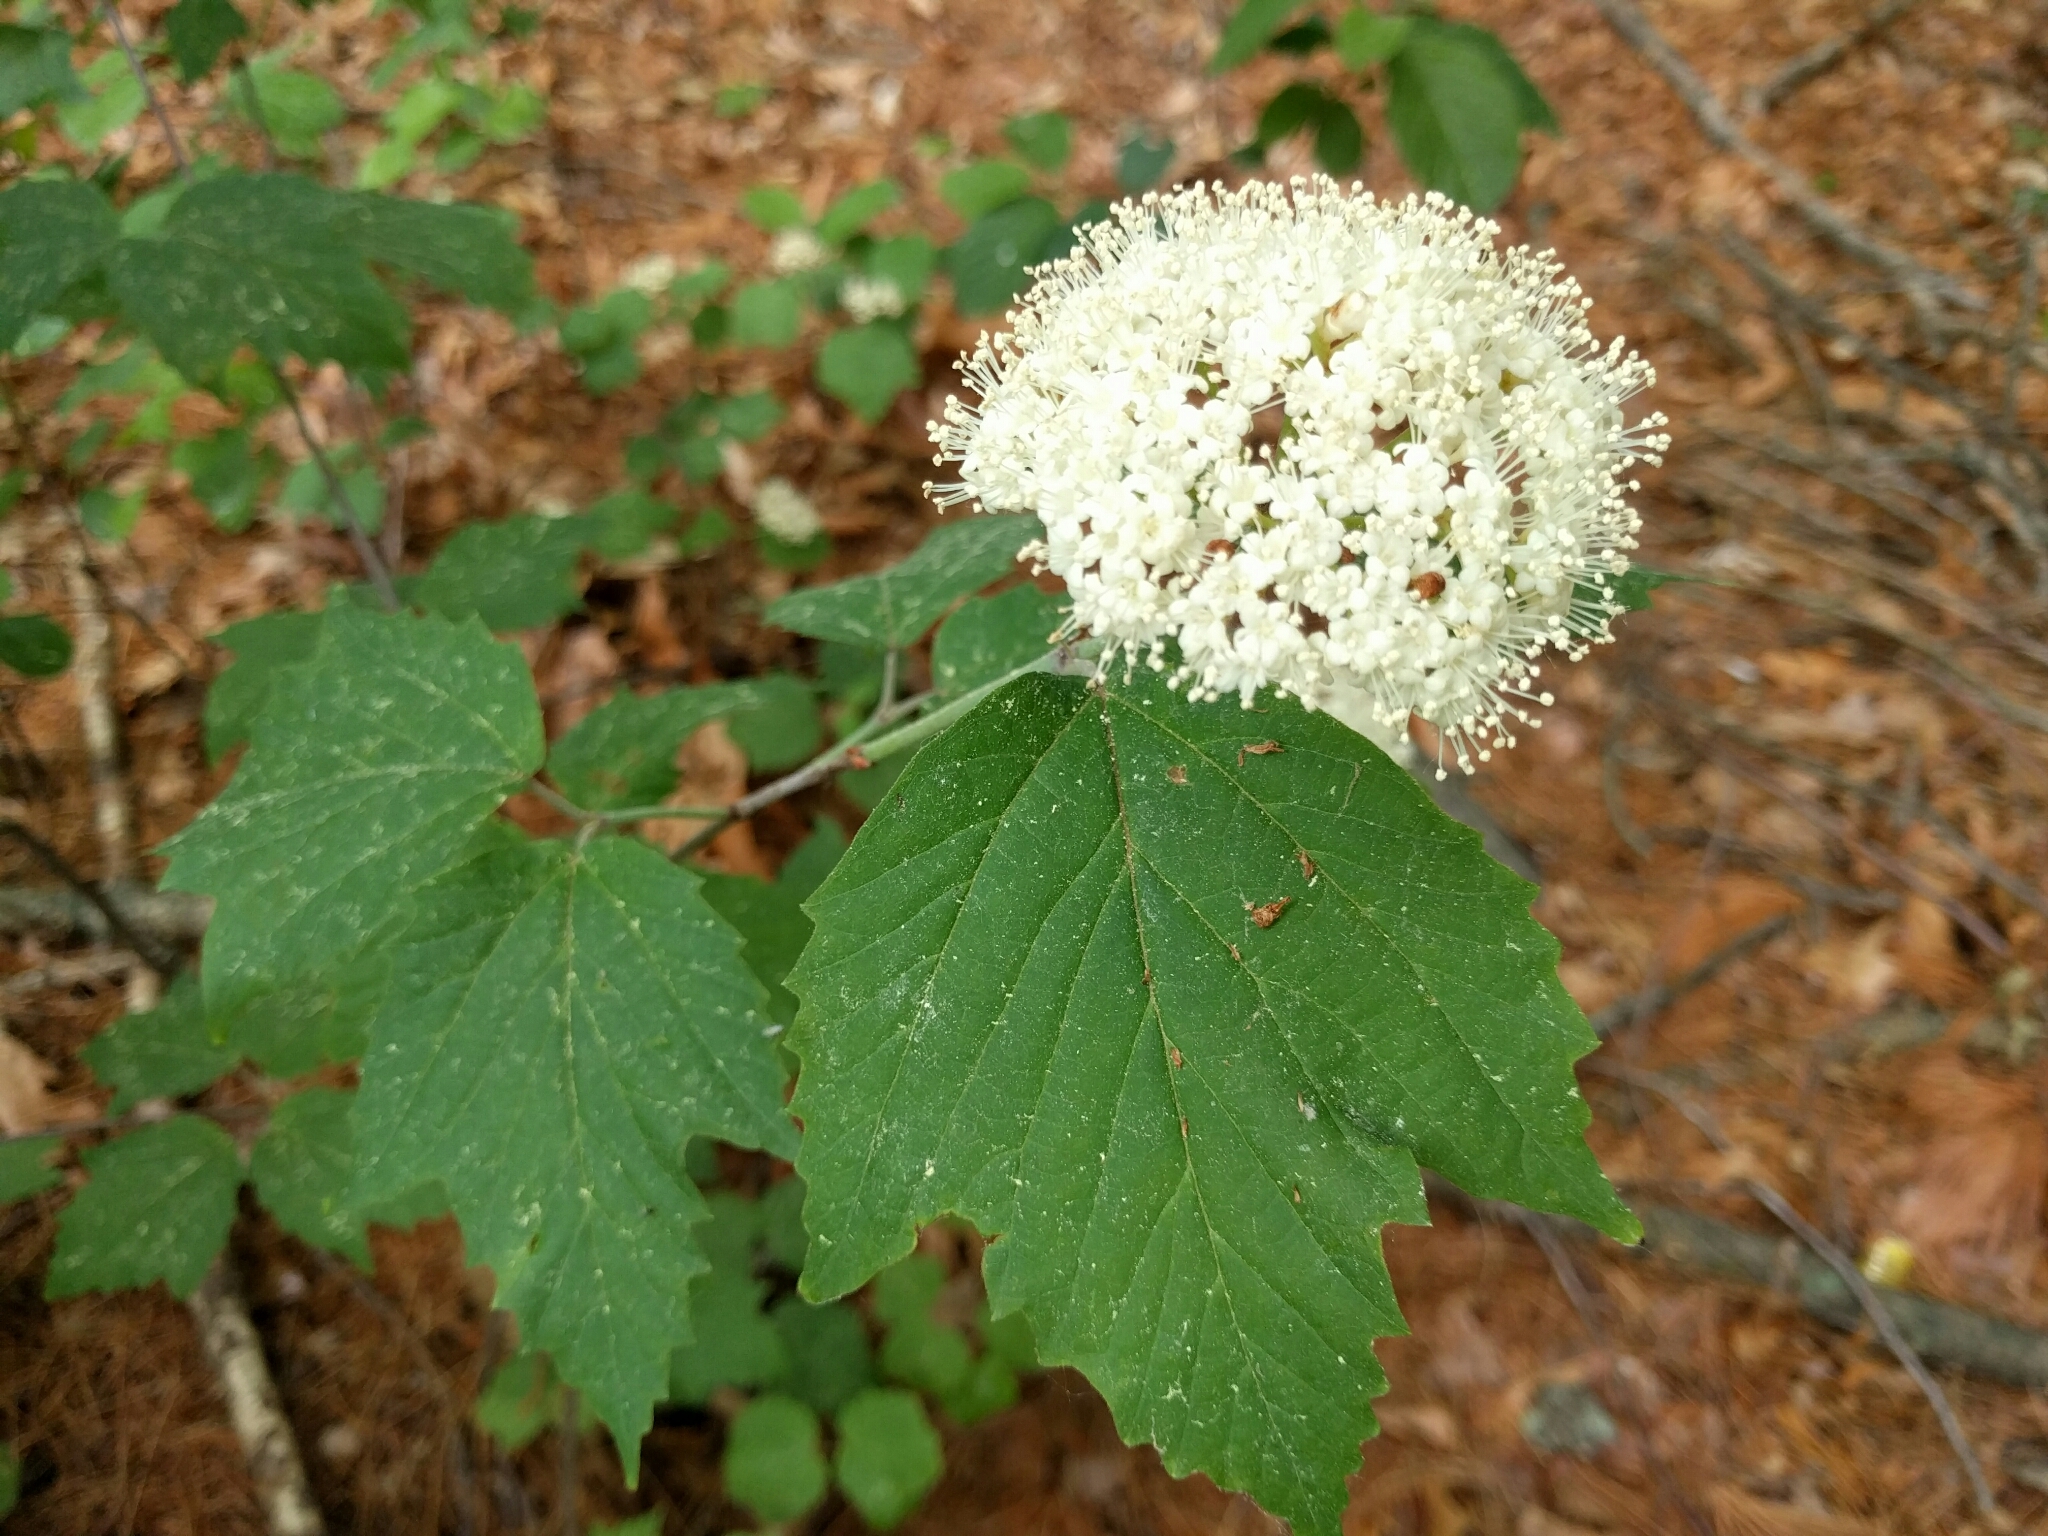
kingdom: Plantae
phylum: Tracheophyta
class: Magnoliopsida
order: Dipsacales
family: Viburnaceae
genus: Viburnum
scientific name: Viburnum acerifolium
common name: Dockmackie
